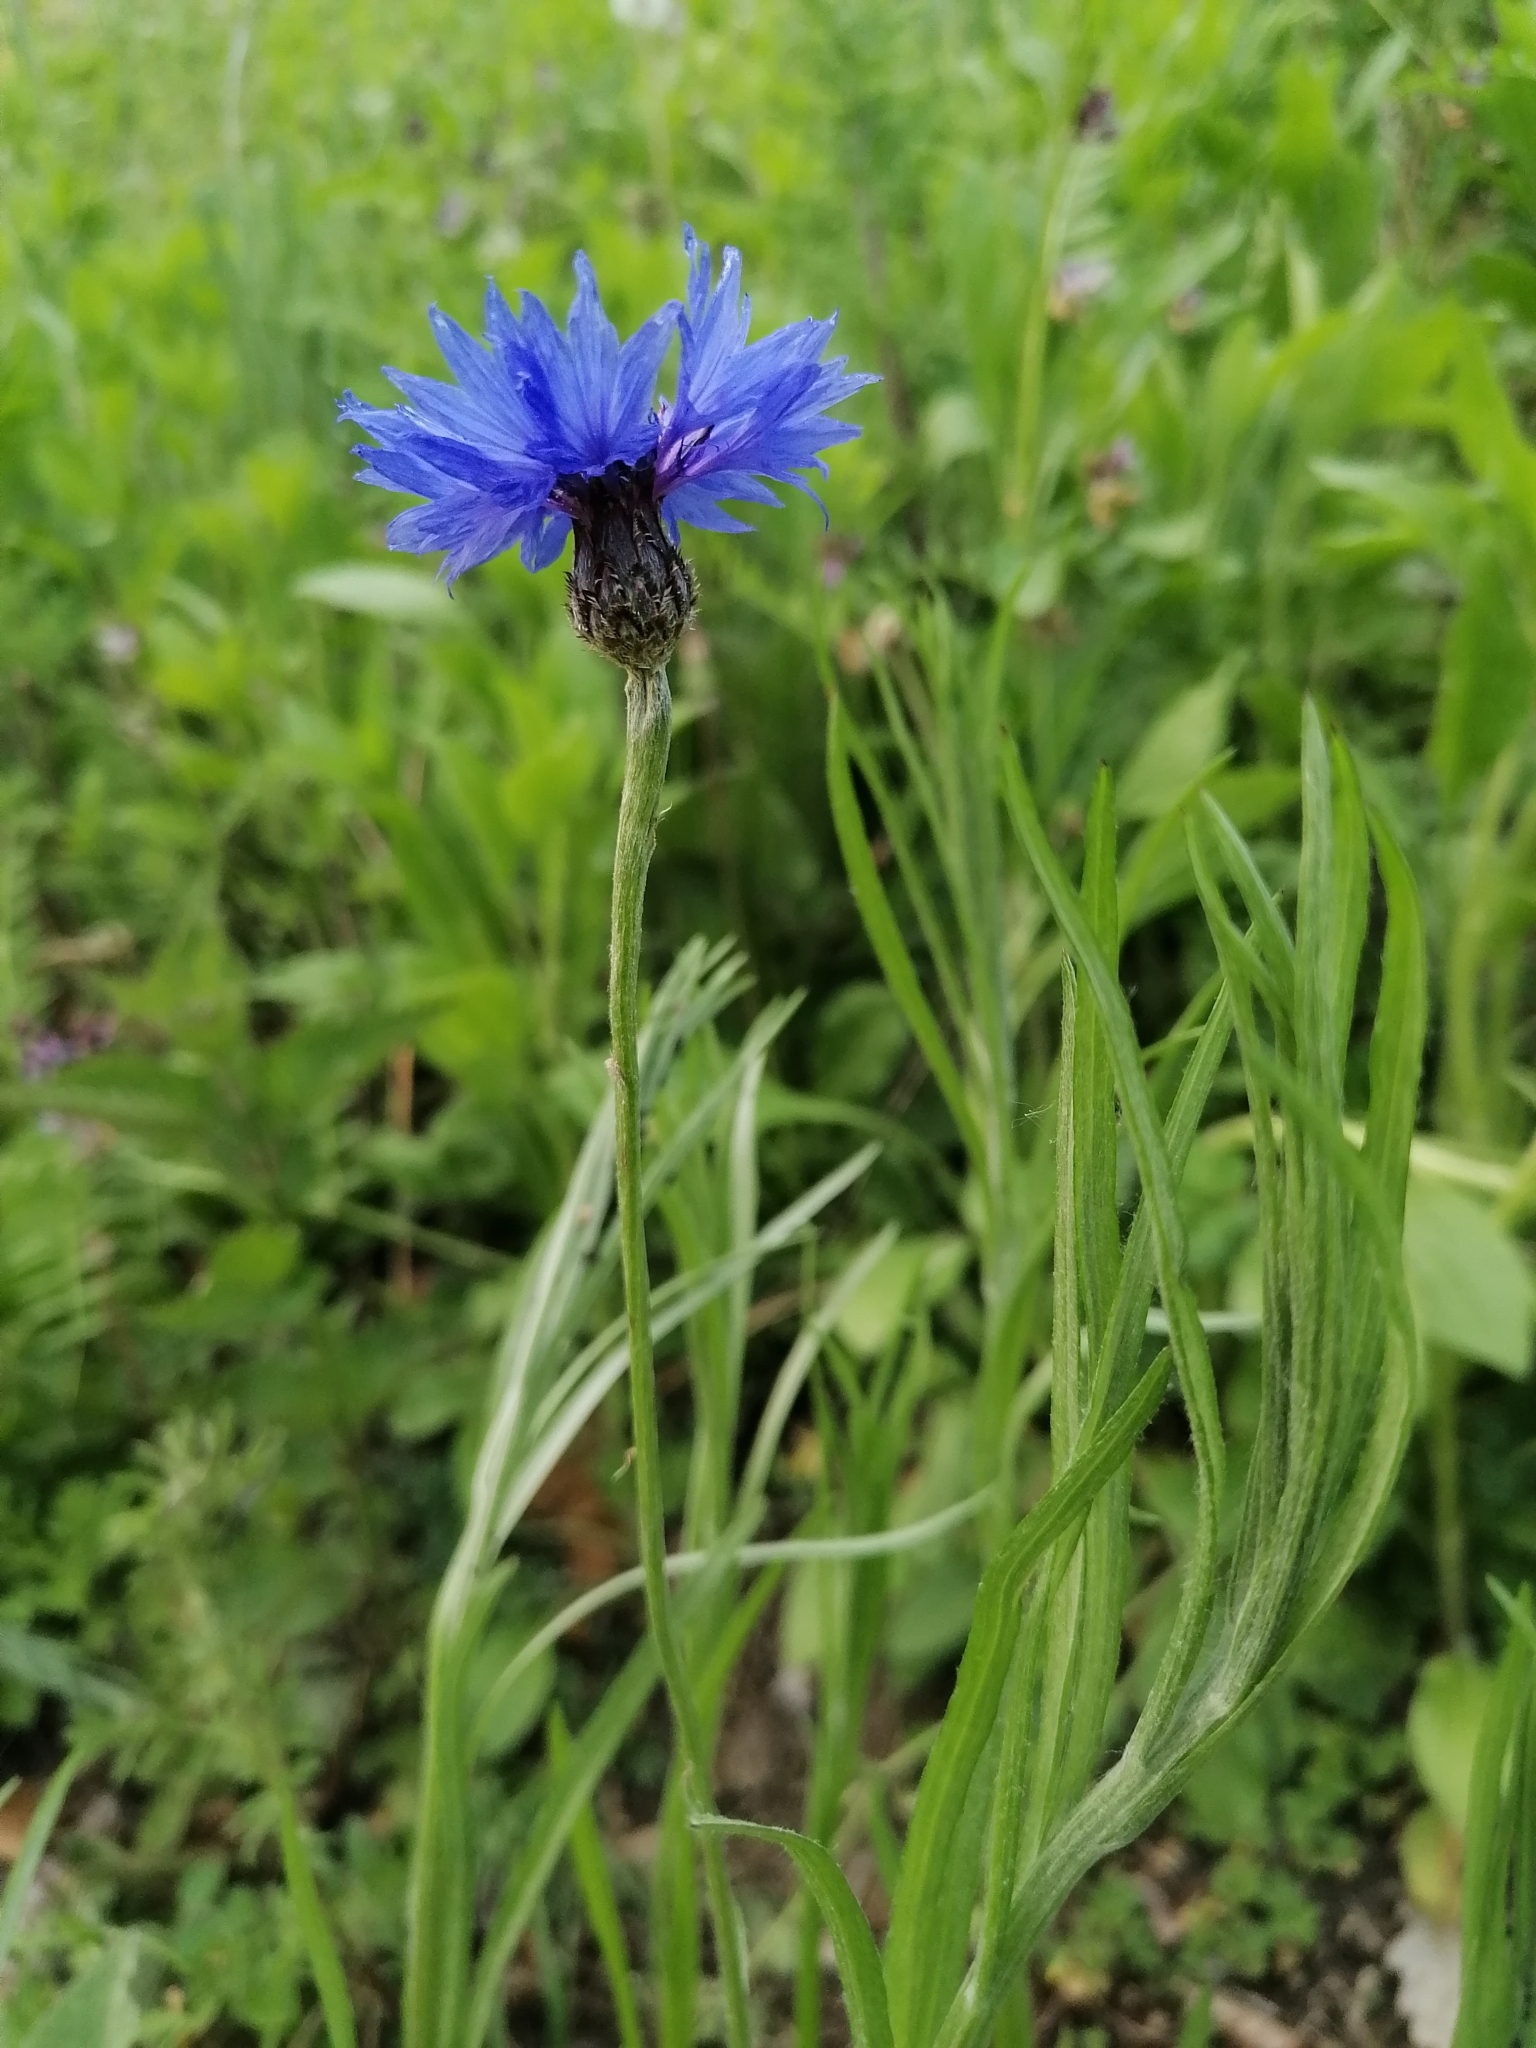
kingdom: Plantae
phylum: Tracheophyta
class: Magnoliopsida
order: Asterales
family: Asteraceae
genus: Centaurea
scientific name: Centaurea cyanus
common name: Cornflower
